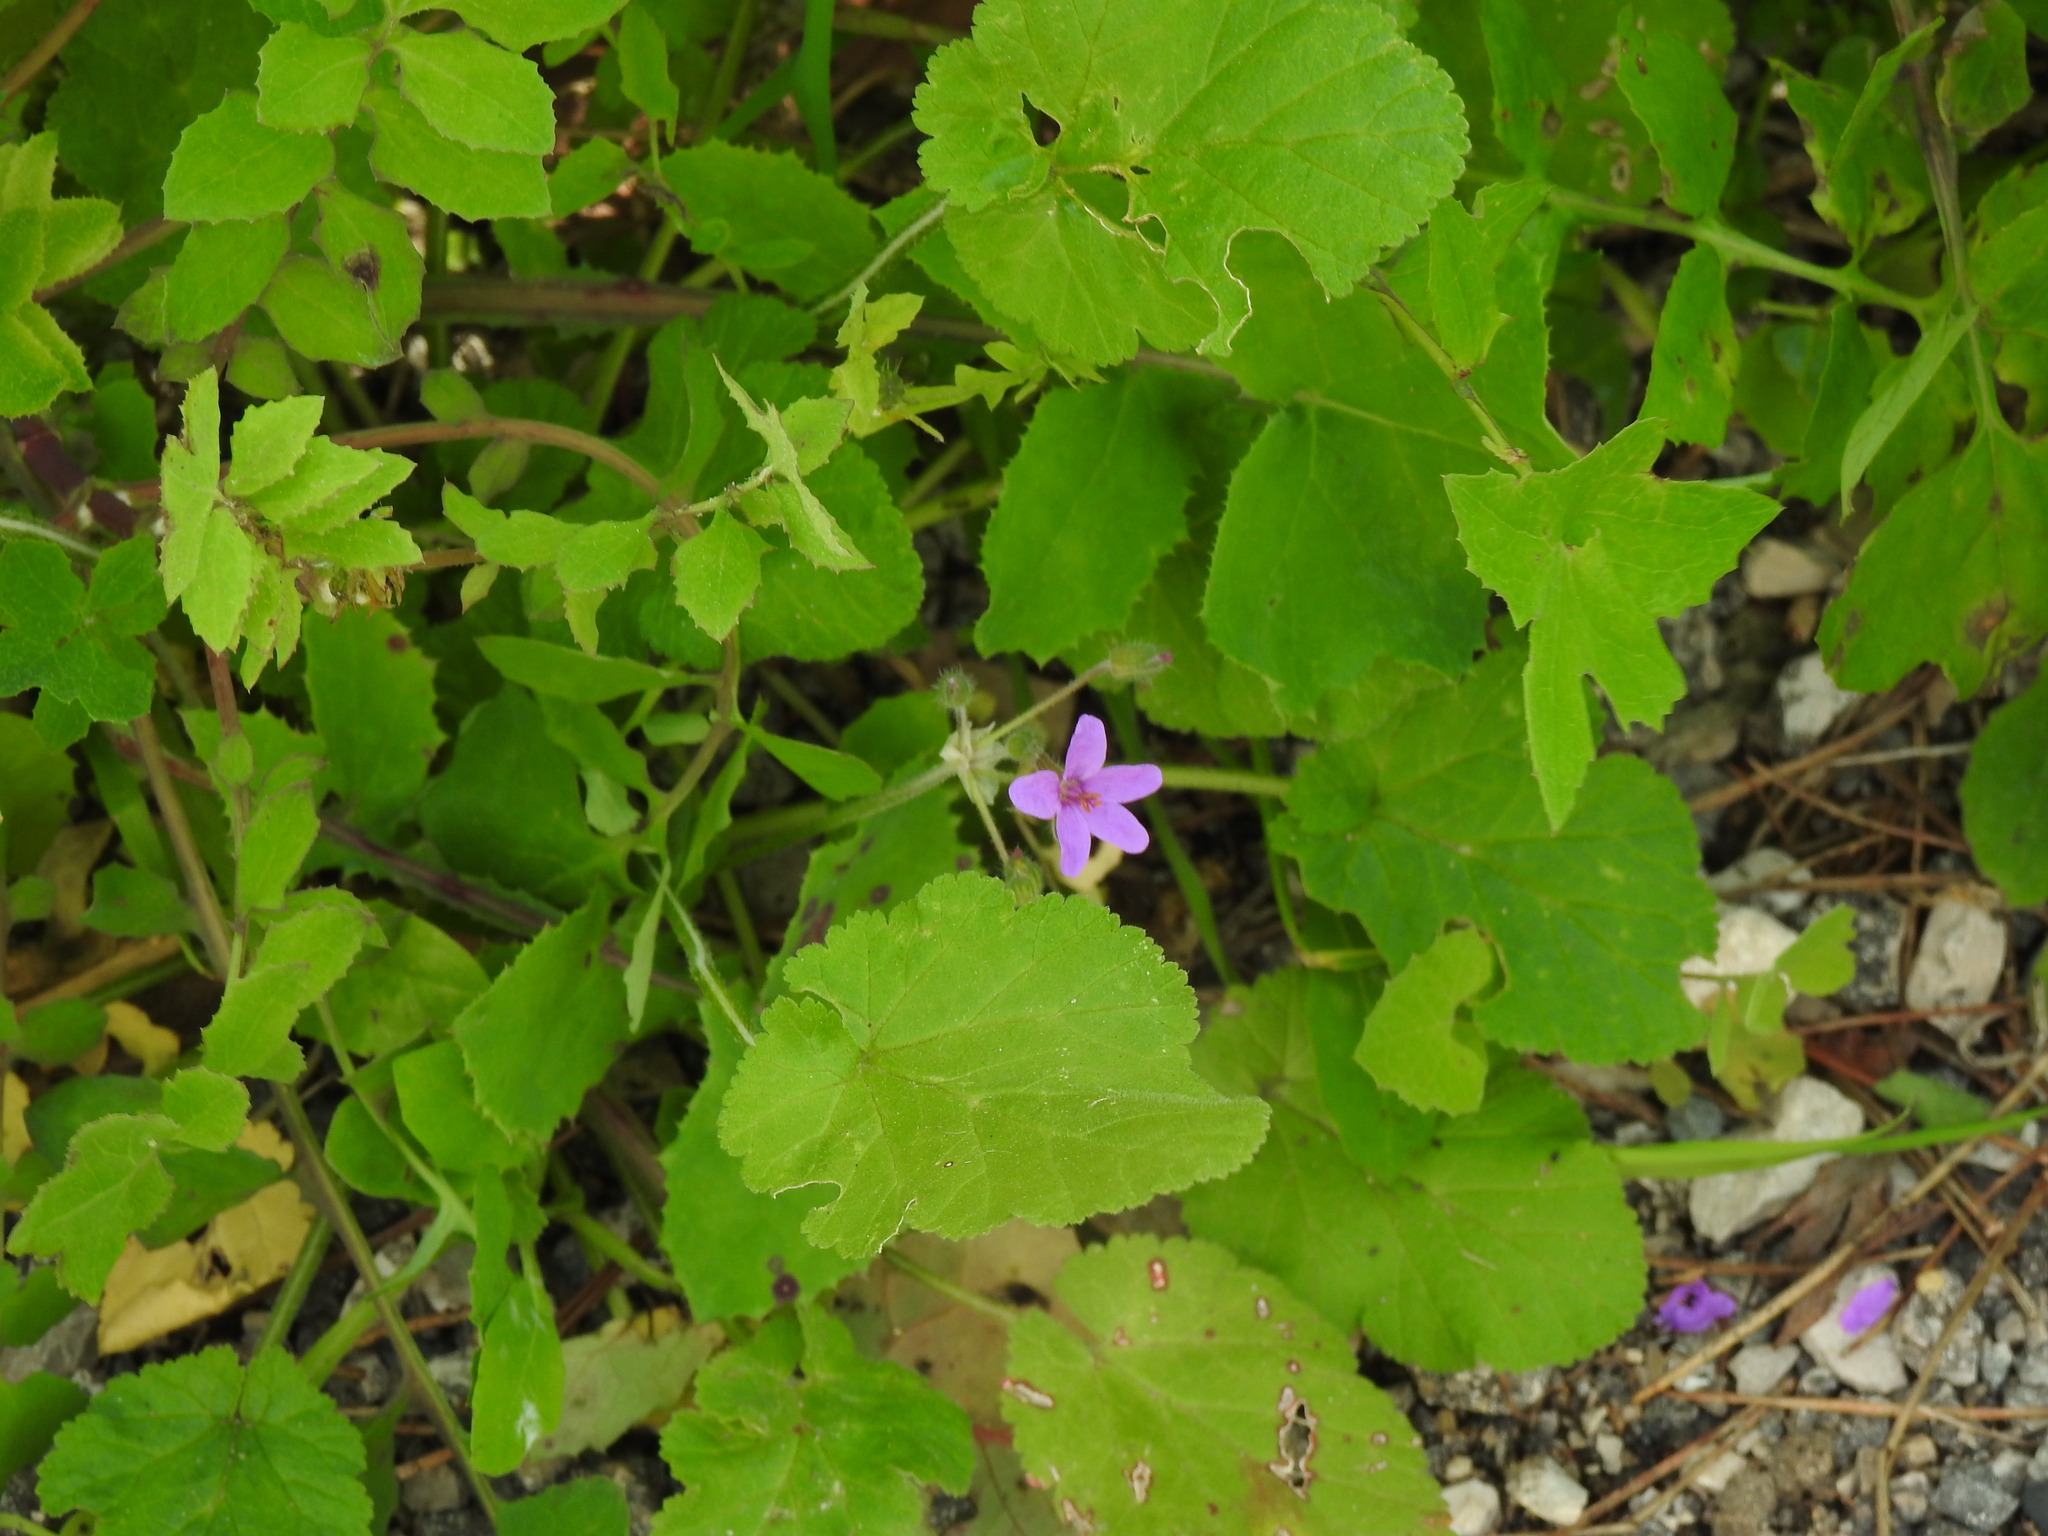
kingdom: Plantae
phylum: Tracheophyta
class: Magnoliopsida
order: Geraniales
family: Geraniaceae
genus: Erodium
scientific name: Erodium malacoides
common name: Soft stork's-bill
